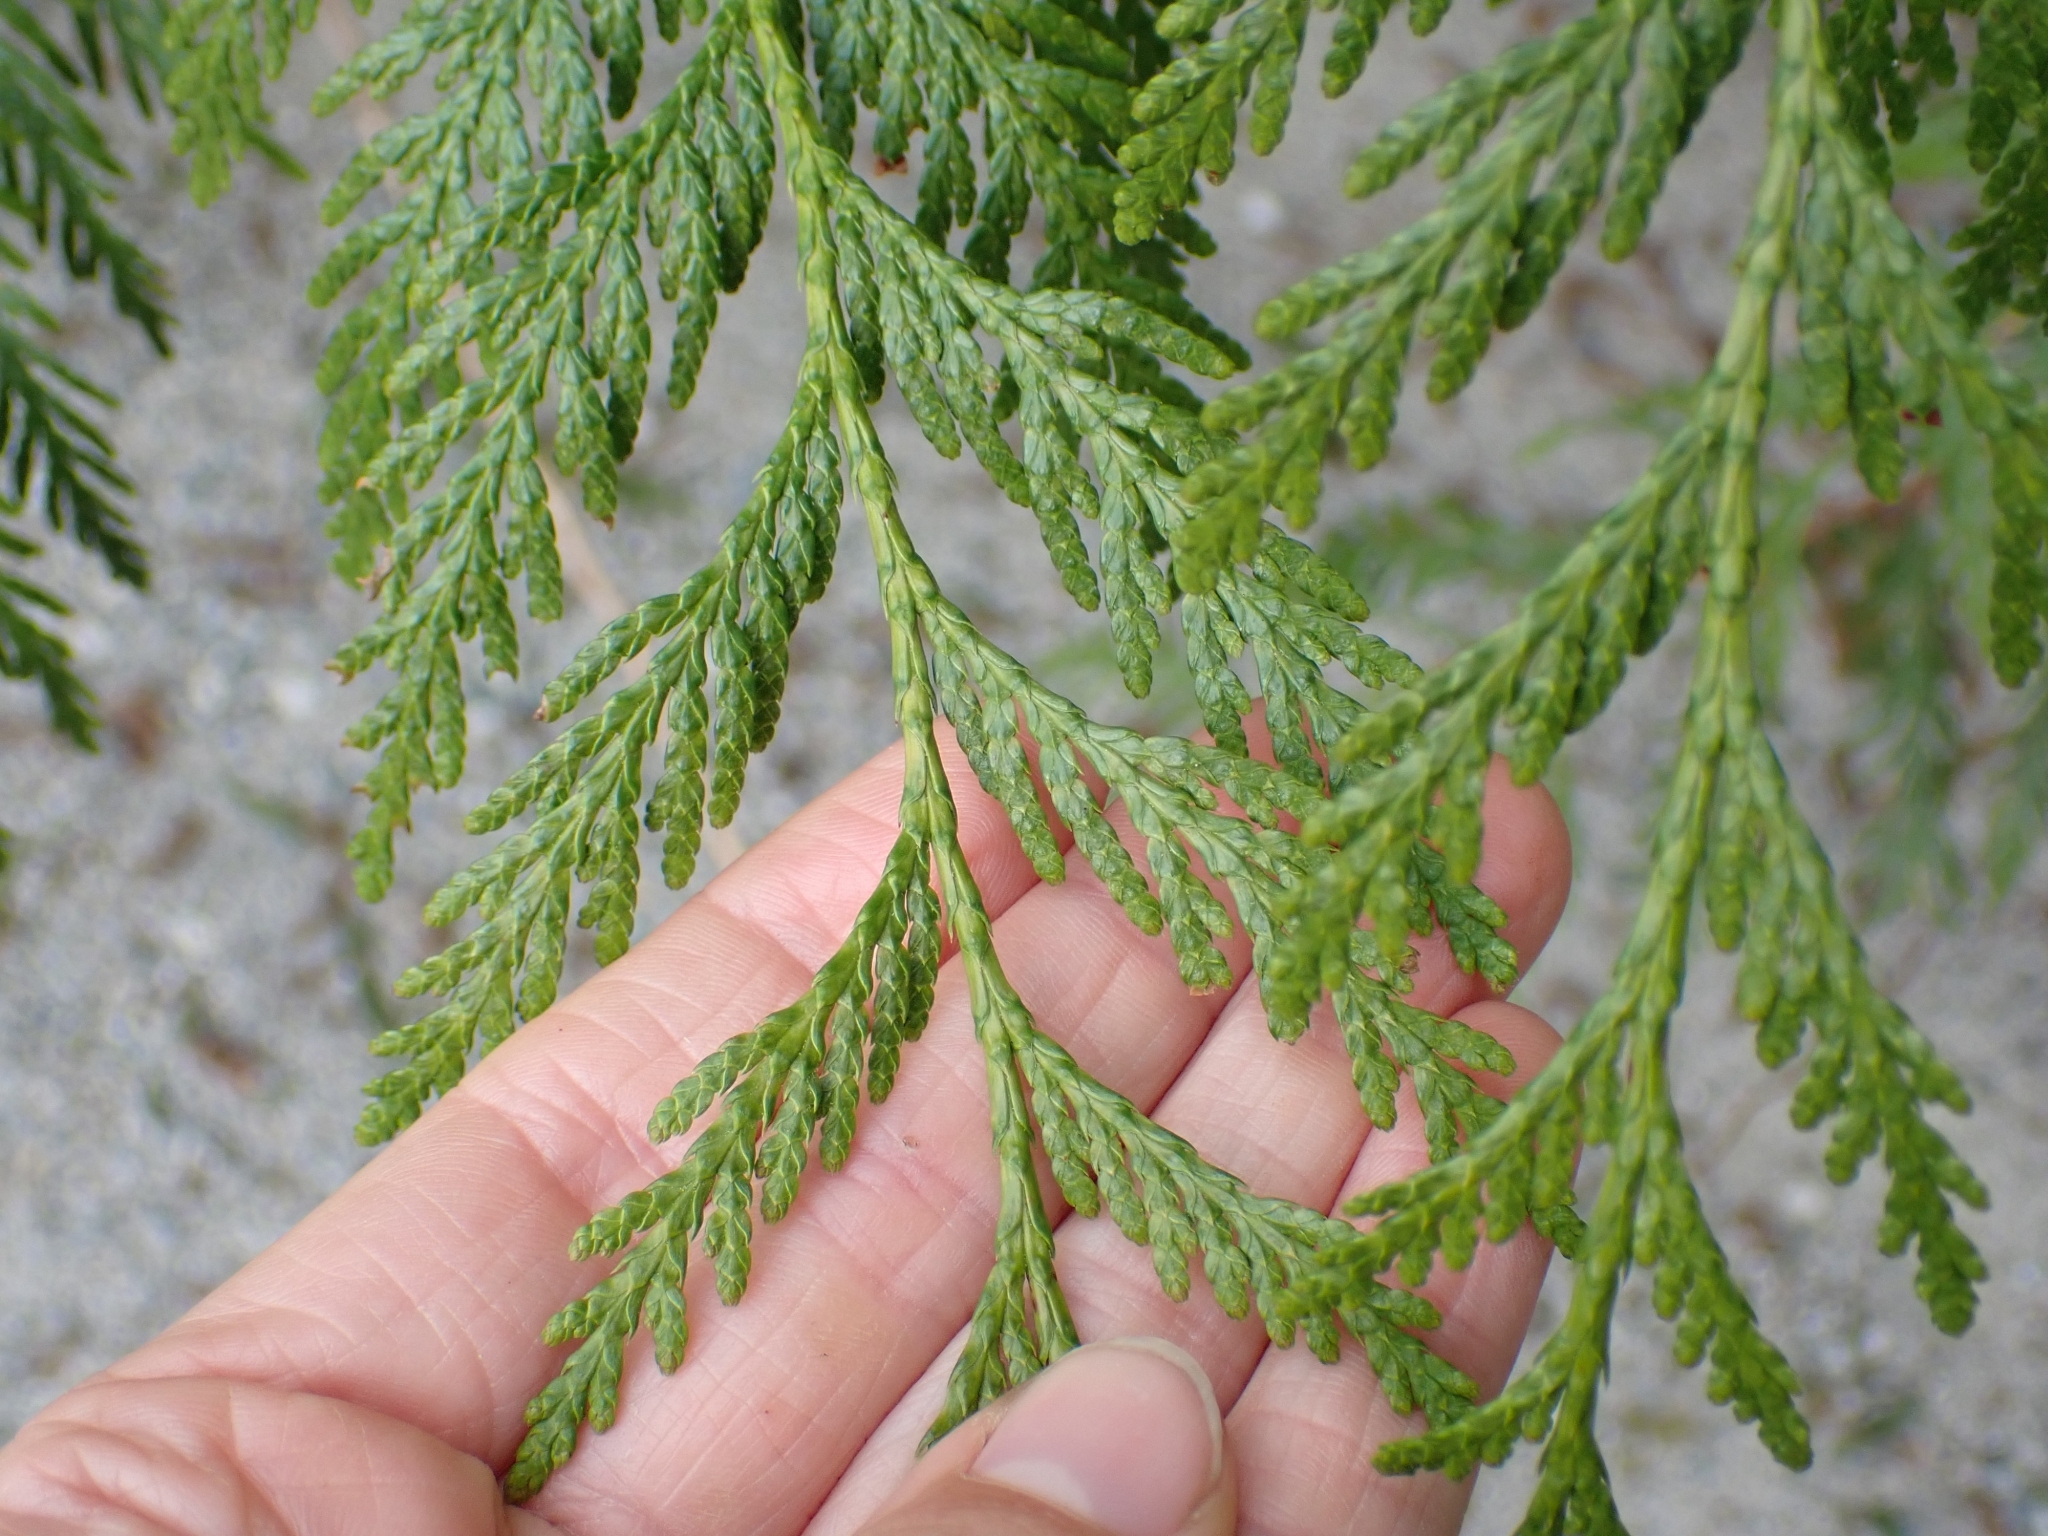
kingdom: Plantae
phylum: Tracheophyta
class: Pinopsida
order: Pinales
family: Cupressaceae
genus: Thuja
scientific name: Thuja plicata
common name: Western red-cedar
